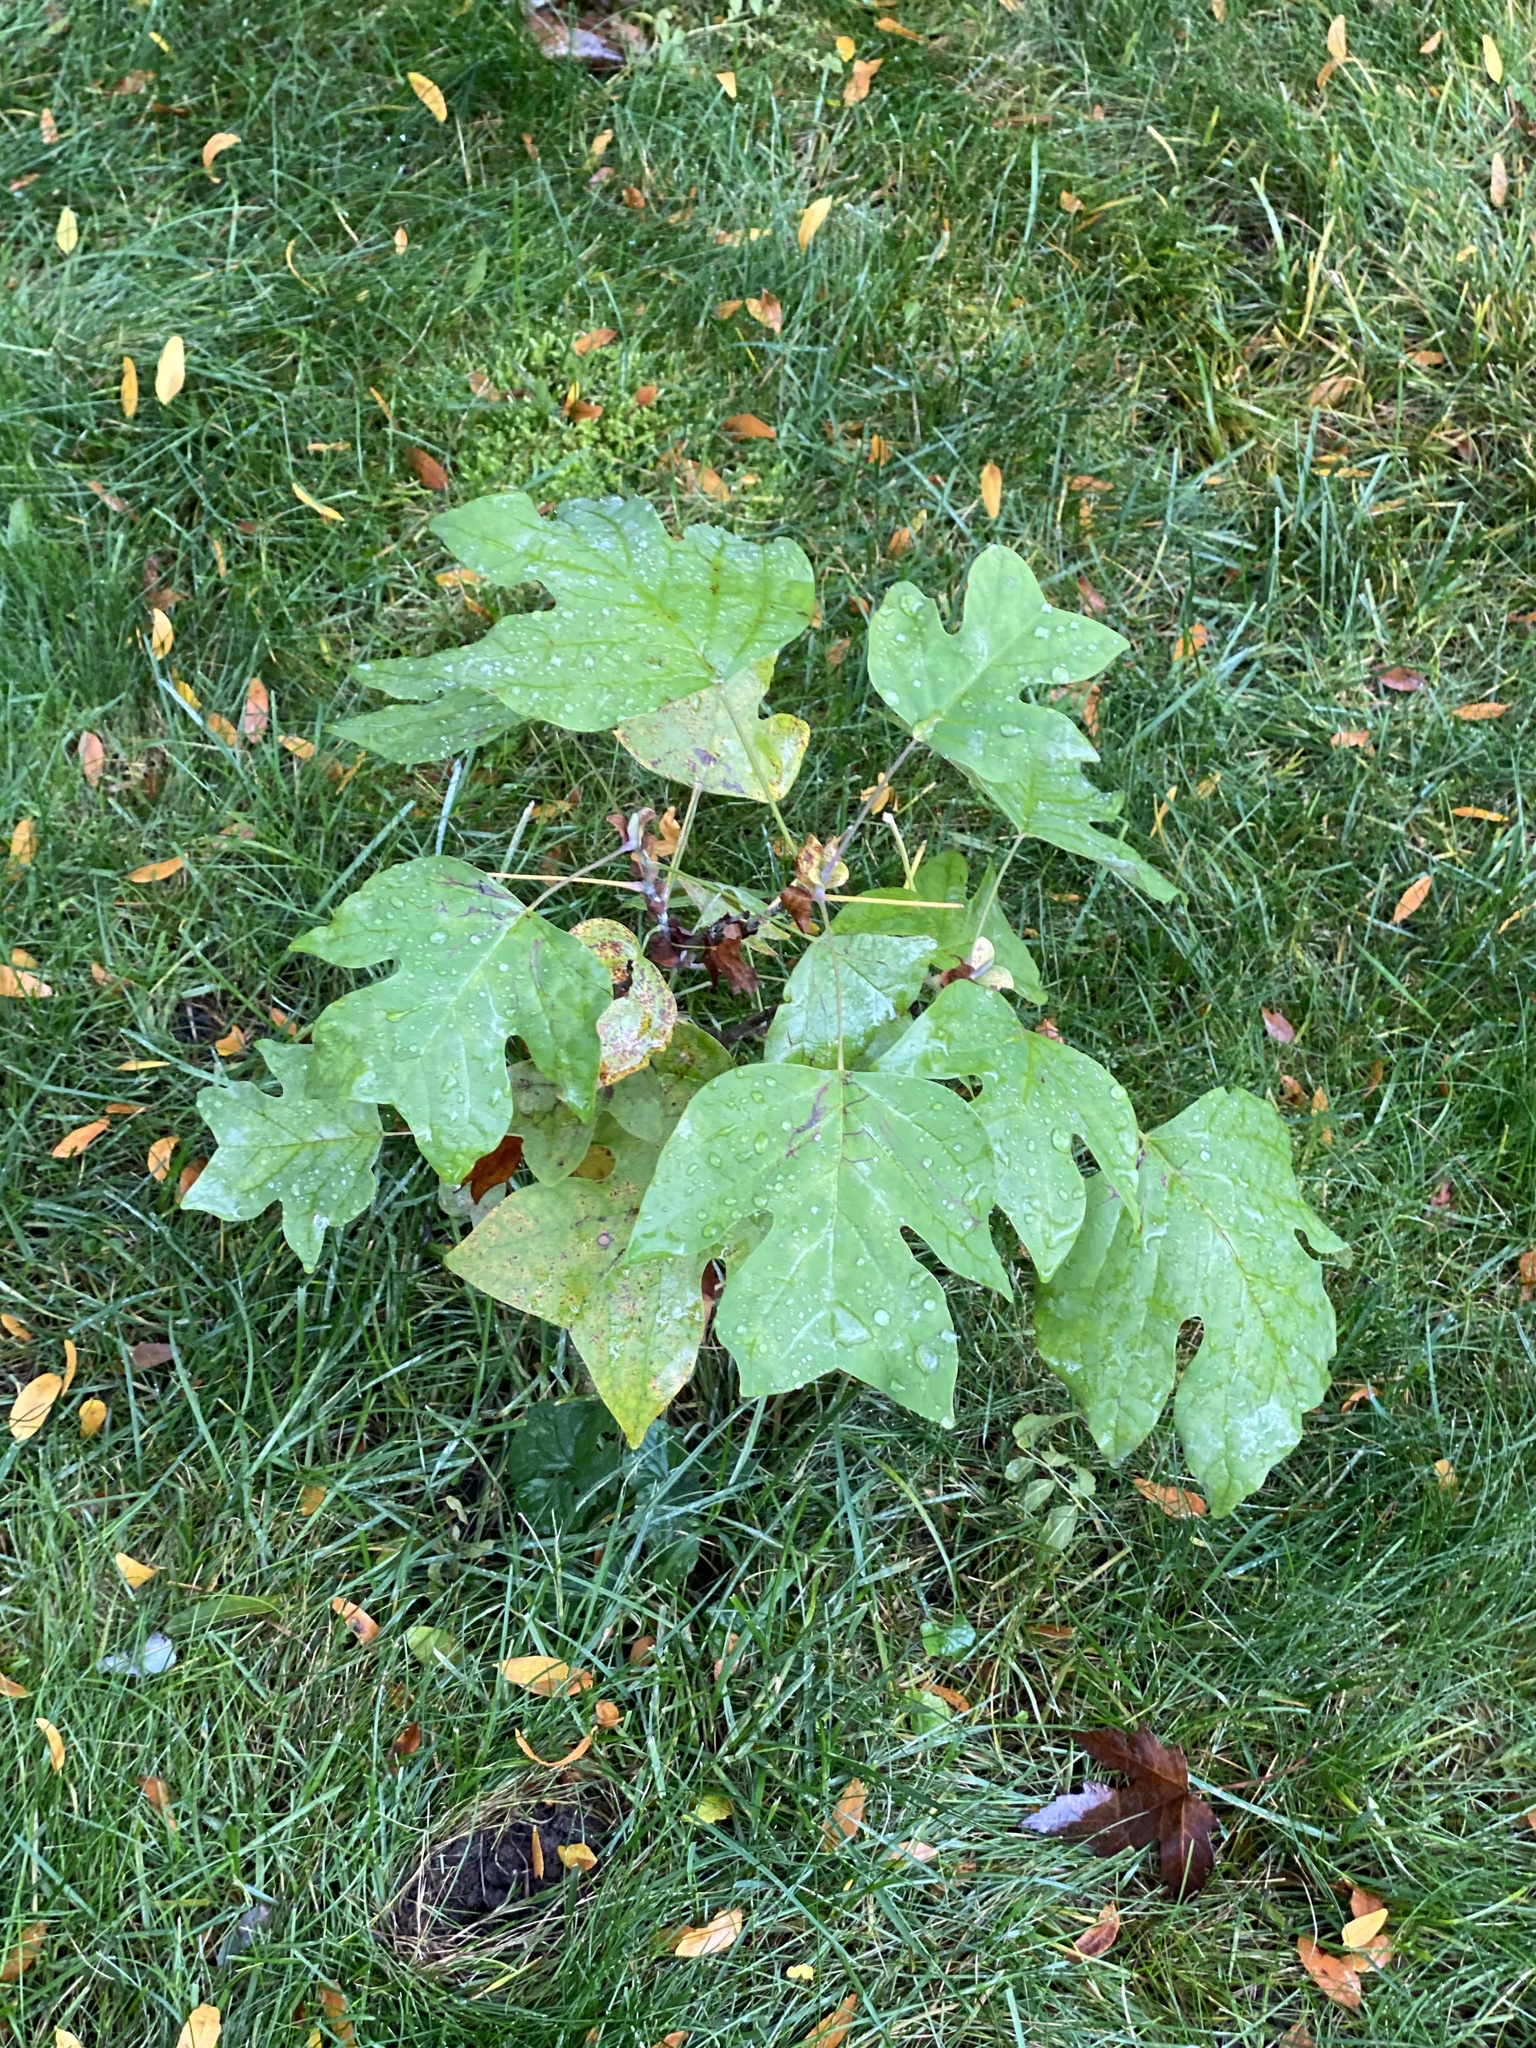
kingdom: Plantae
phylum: Tracheophyta
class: Magnoliopsida
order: Magnoliales
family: Magnoliaceae
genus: Liriodendron
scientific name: Liriodendron tulipifera
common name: Tulip tree
